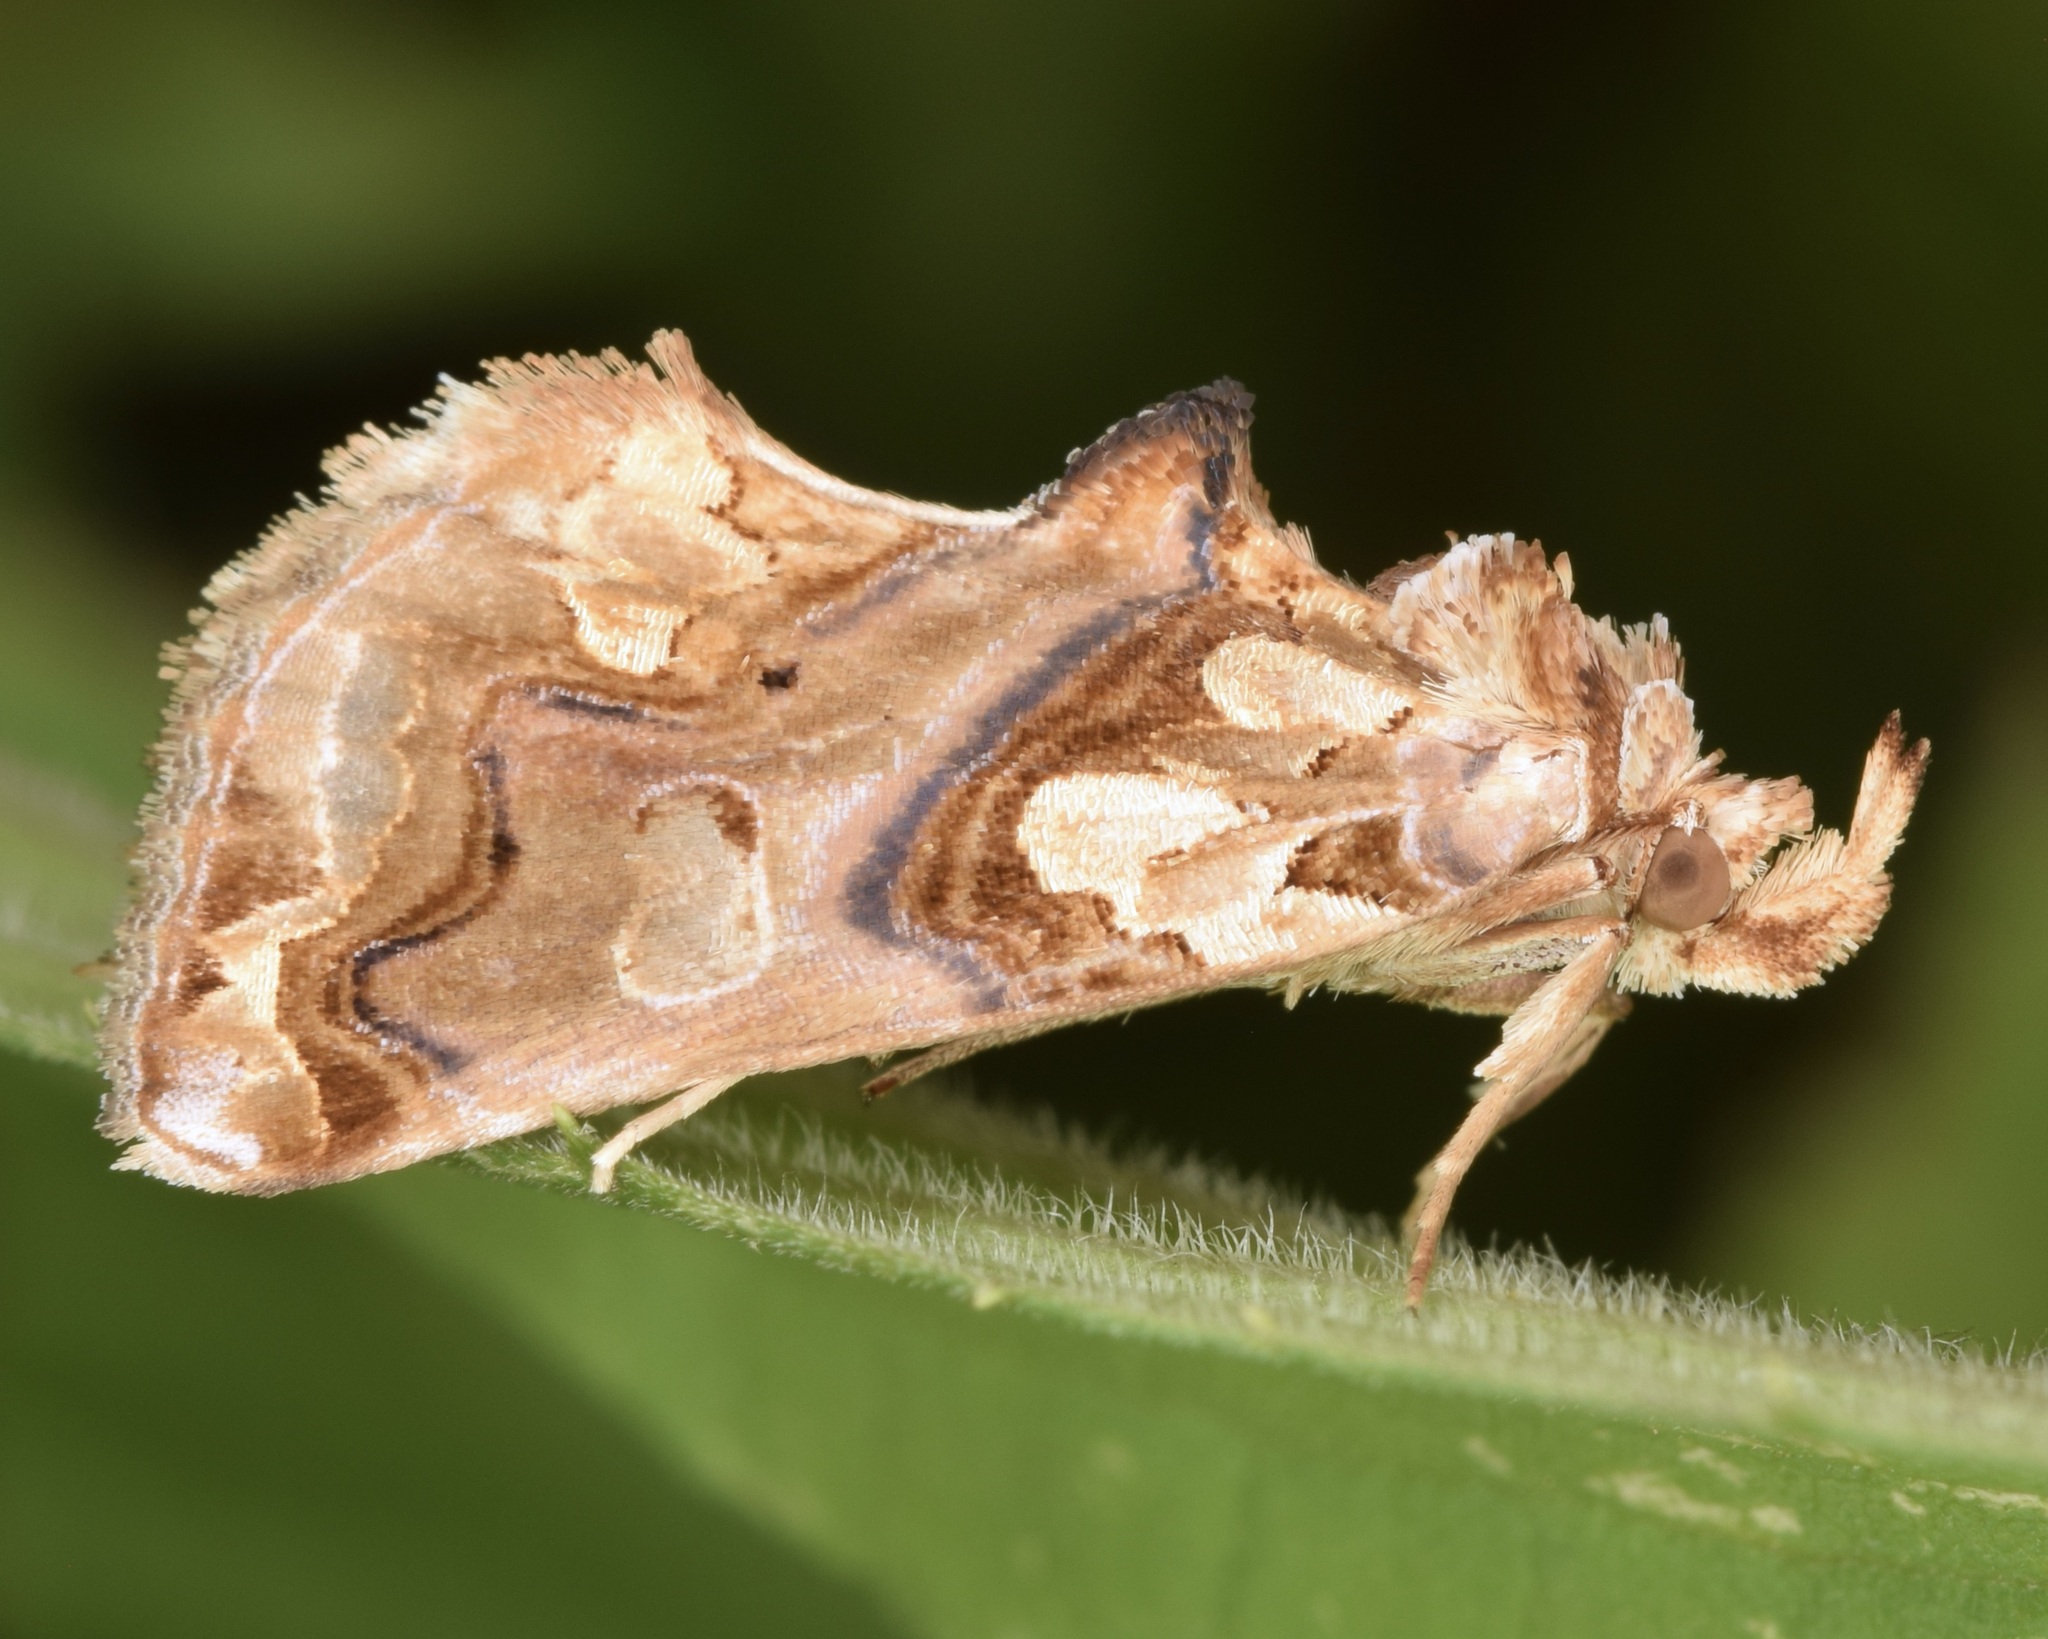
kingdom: Animalia
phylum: Arthropoda
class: Insecta
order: Lepidoptera
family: Erebidae
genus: Plusiodonta
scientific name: Plusiodonta compressipalpis
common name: Moonseed moth
